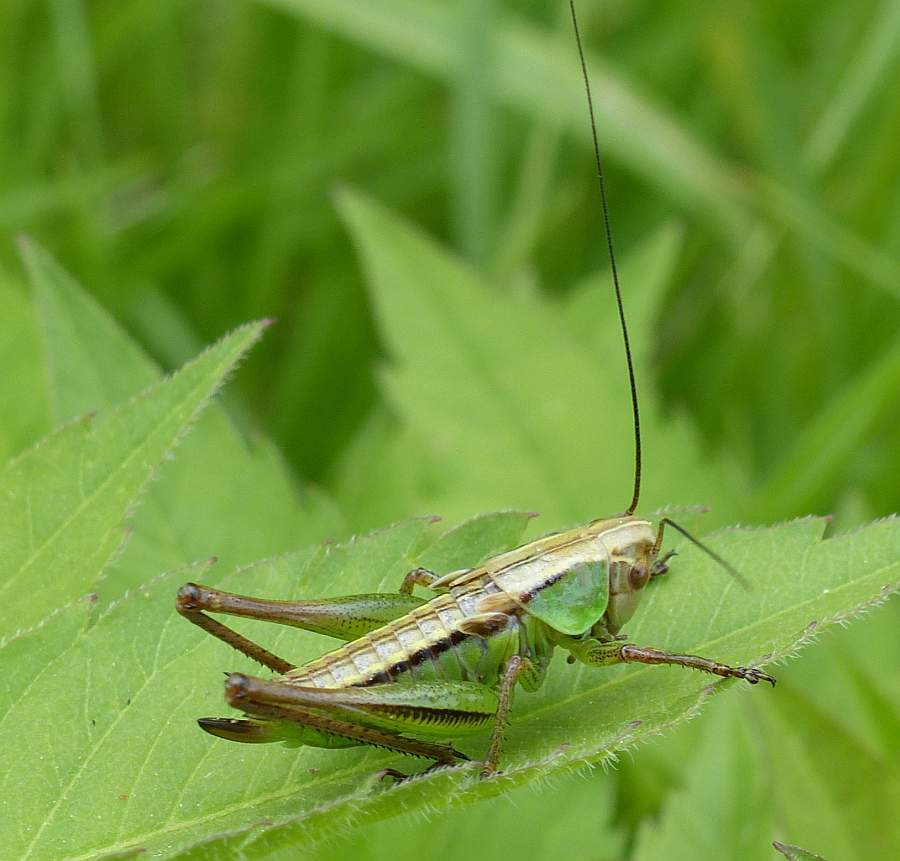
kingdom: Animalia
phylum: Arthropoda
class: Insecta
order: Orthoptera
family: Tettigoniidae
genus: Roeseliana
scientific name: Roeseliana roeselii
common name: Roesel's bush cricket
